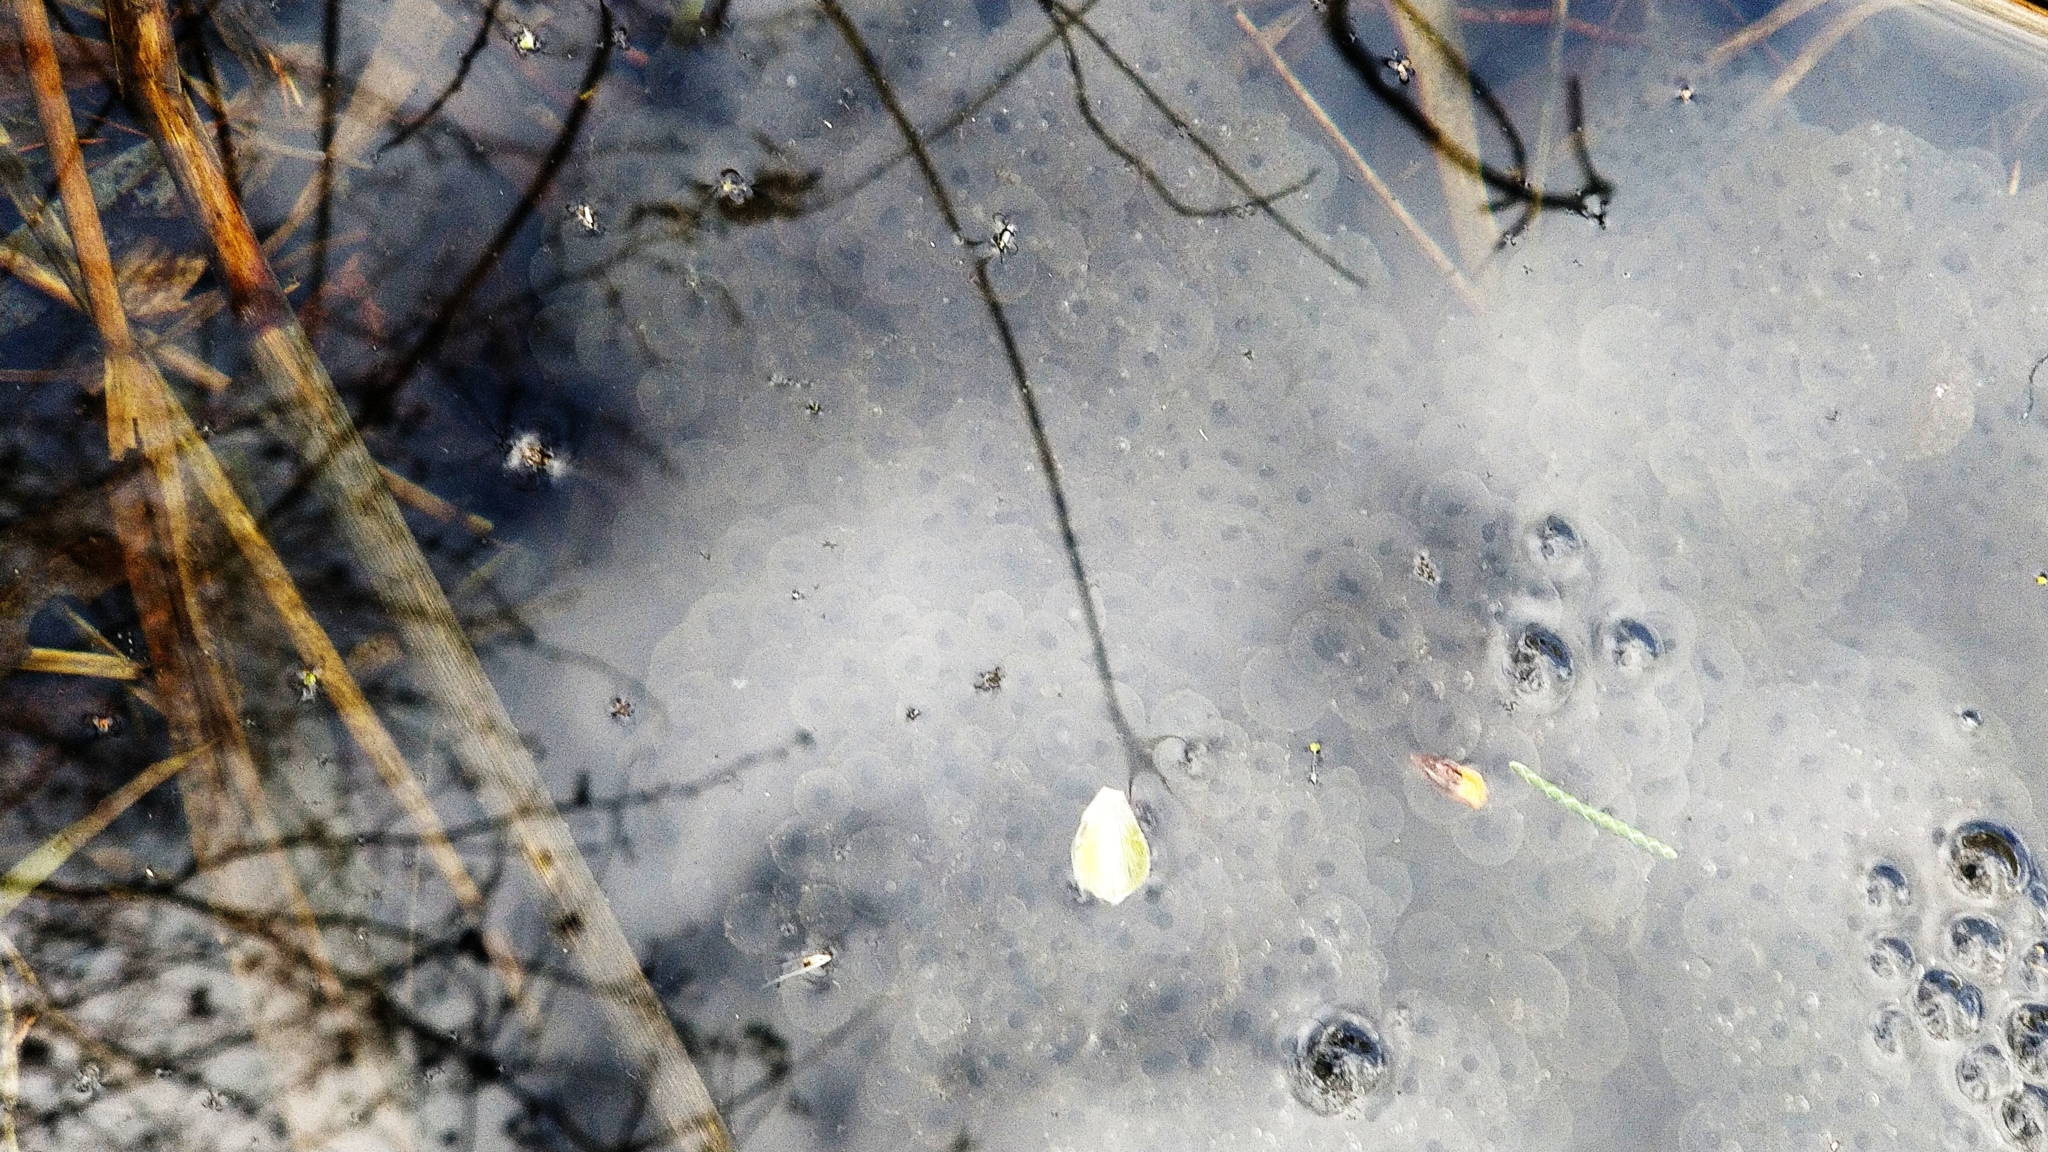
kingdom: Animalia
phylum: Chordata
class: Amphibia
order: Anura
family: Ranidae
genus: Rana
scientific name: Rana temporaria
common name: Common frog
